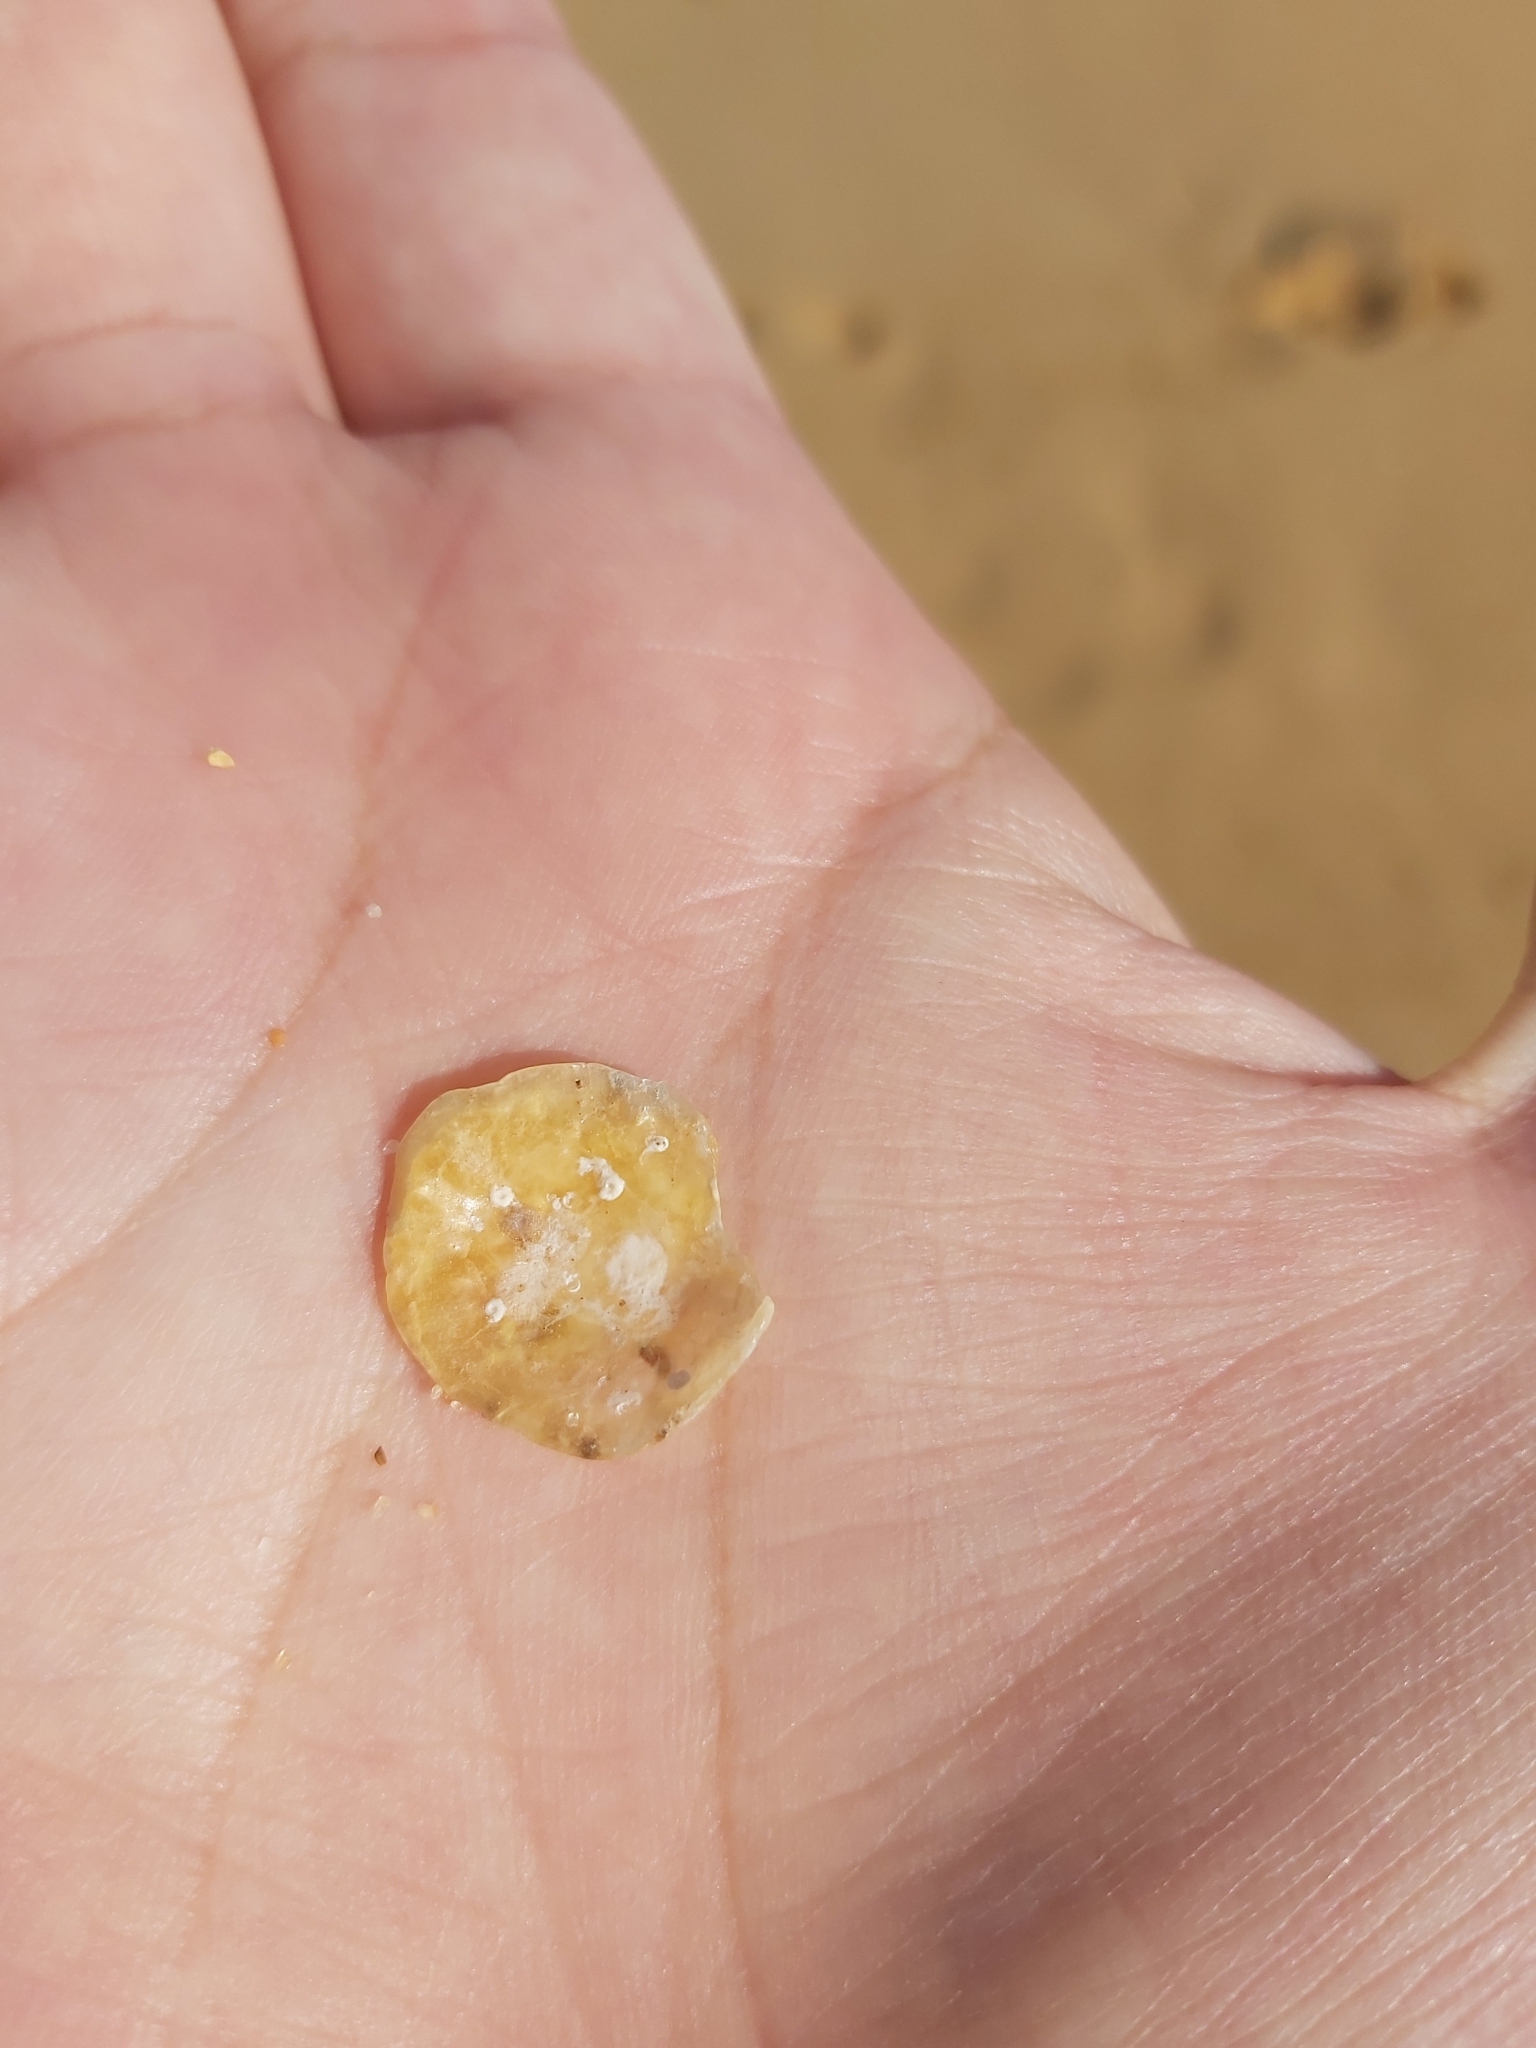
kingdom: Animalia
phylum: Mollusca
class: Bivalvia
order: Pectinida
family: Anomiidae
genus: Anomia
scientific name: Anomia trigonopsis
